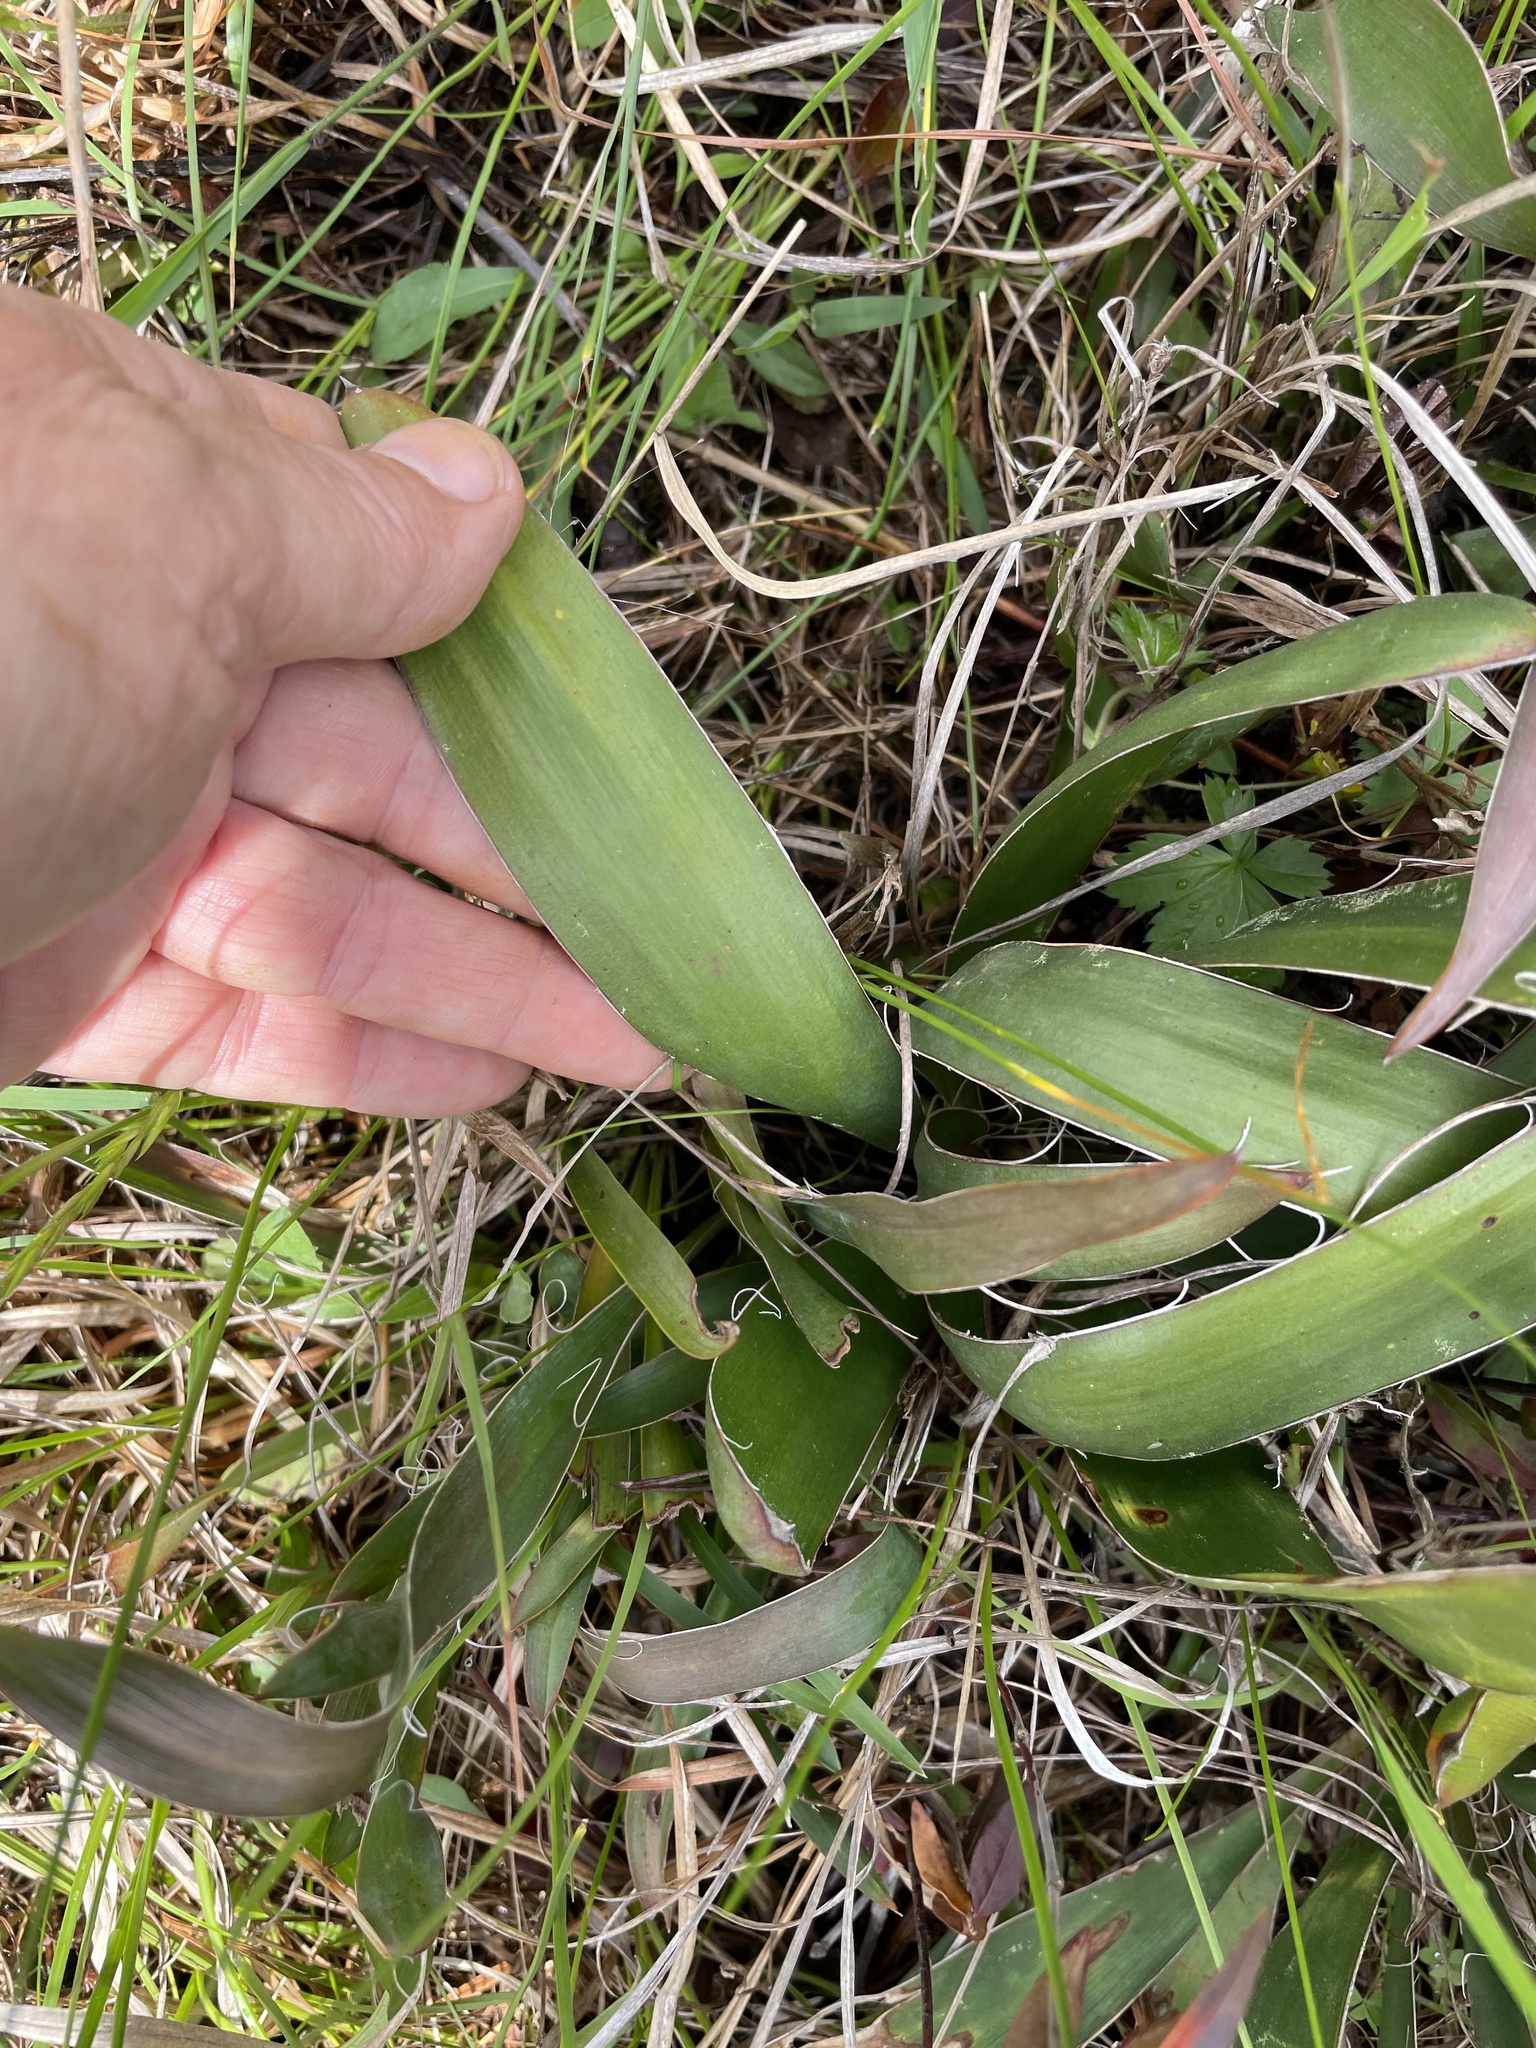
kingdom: Plantae
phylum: Tracheophyta
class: Liliopsida
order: Asparagales
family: Asparagaceae
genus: Yucca
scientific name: Yucca filamentosa
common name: Adam's-needle
